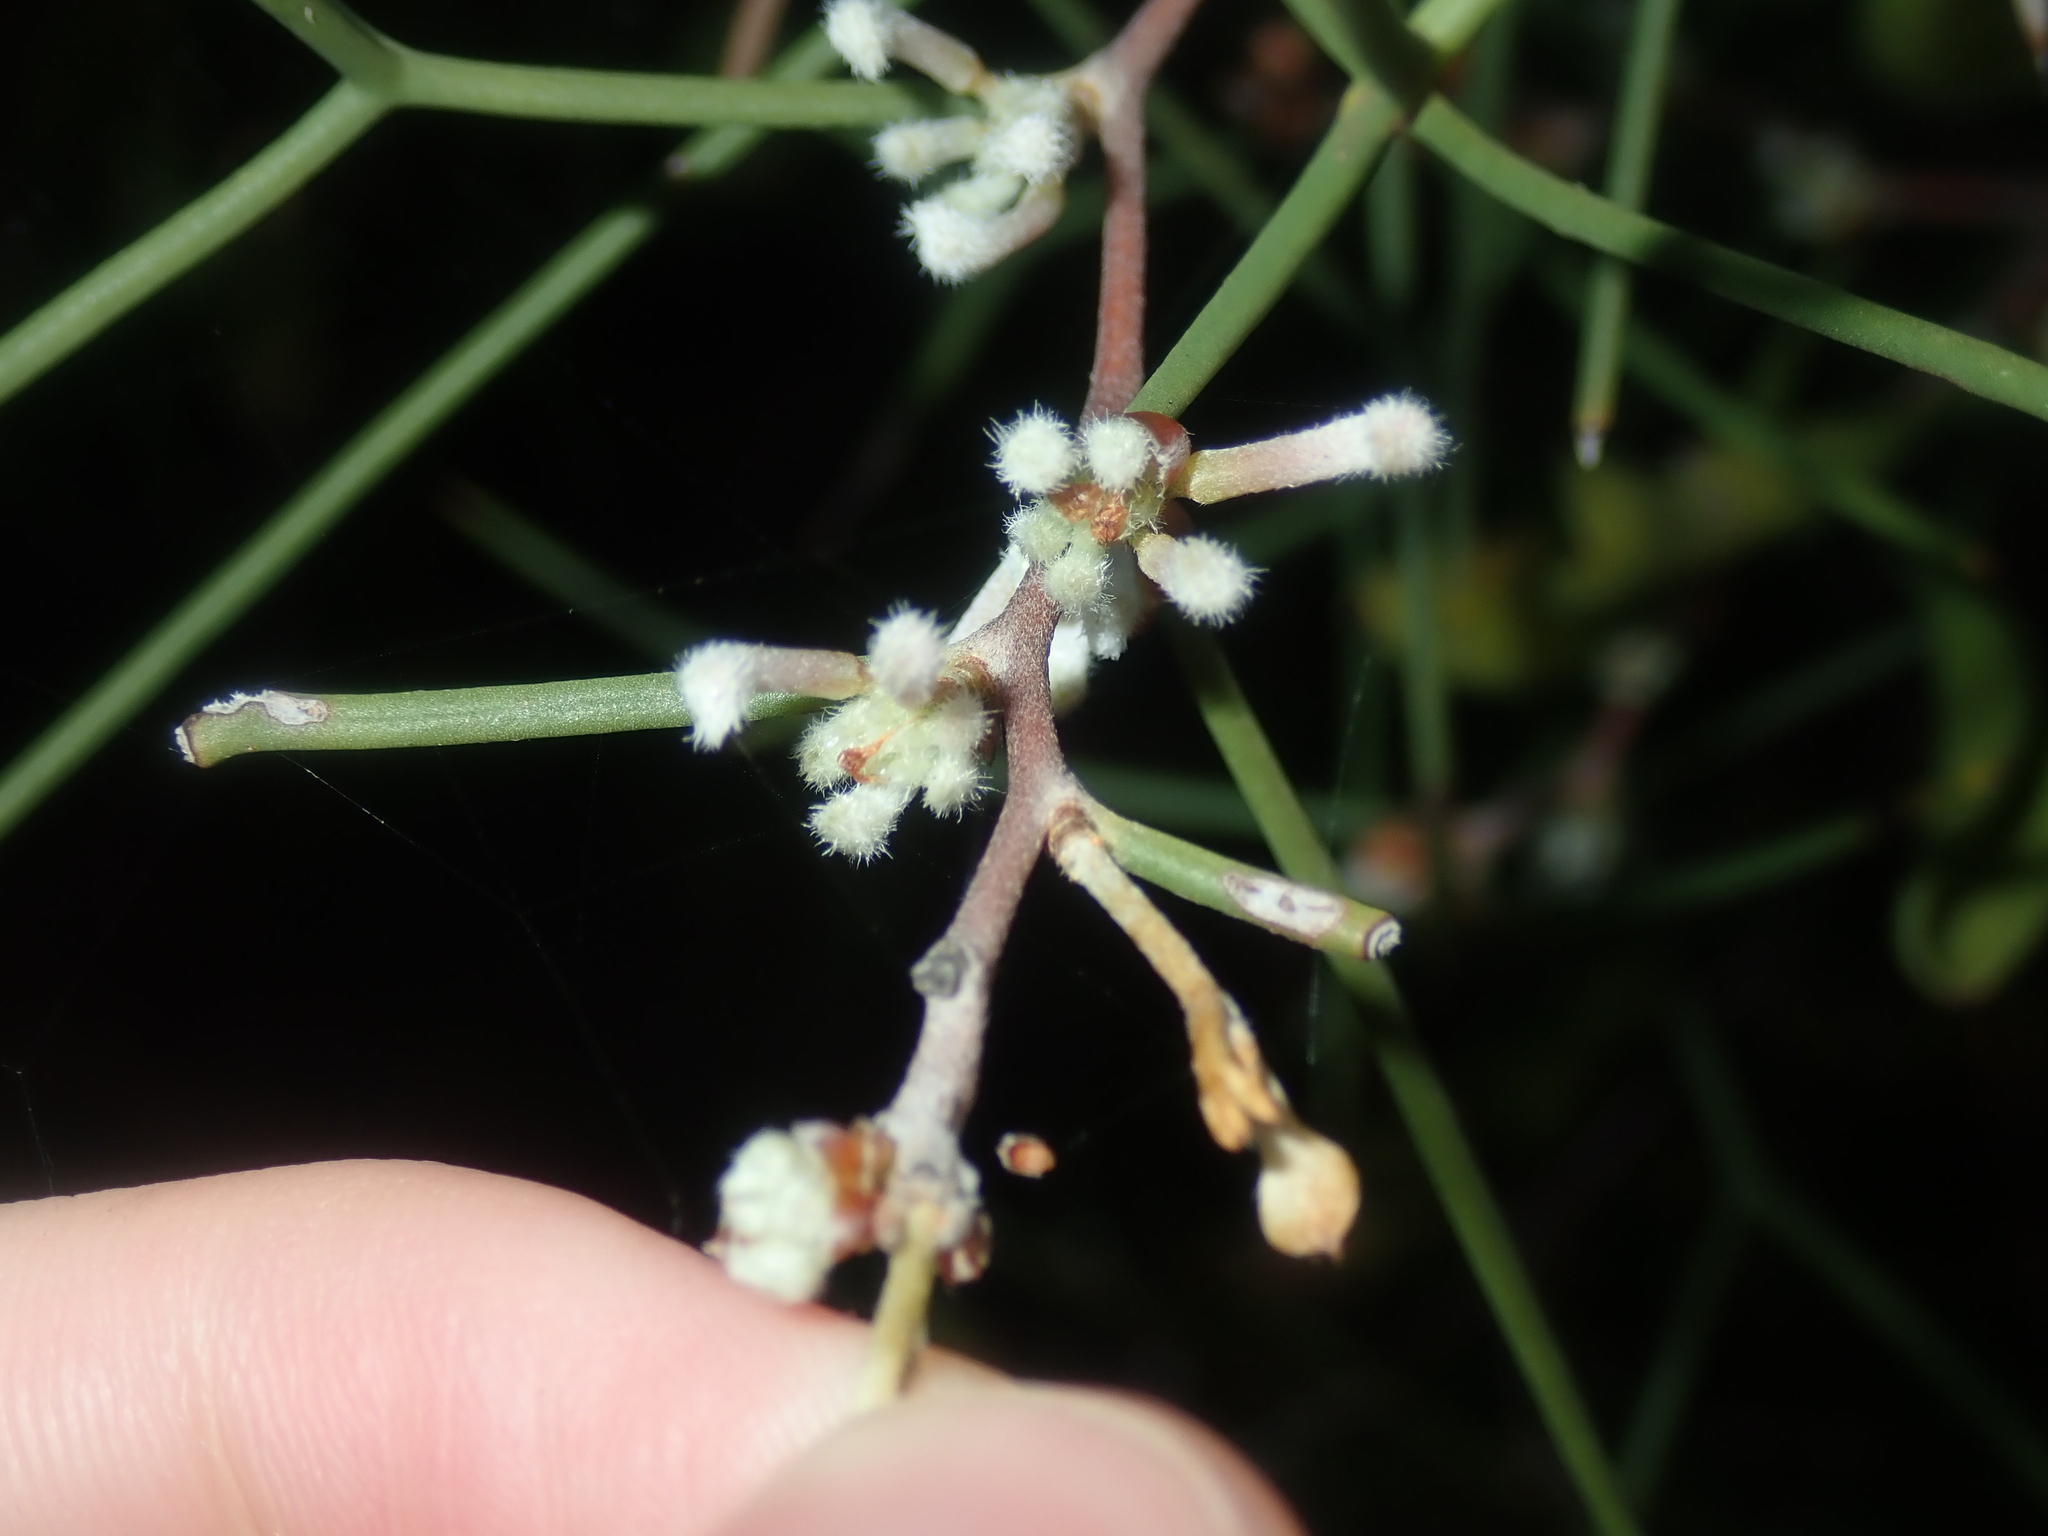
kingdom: Plantae
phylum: Tracheophyta
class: Magnoliopsida
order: Proteales
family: Proteaceae
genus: Hakea
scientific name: Hakea trifurcata
